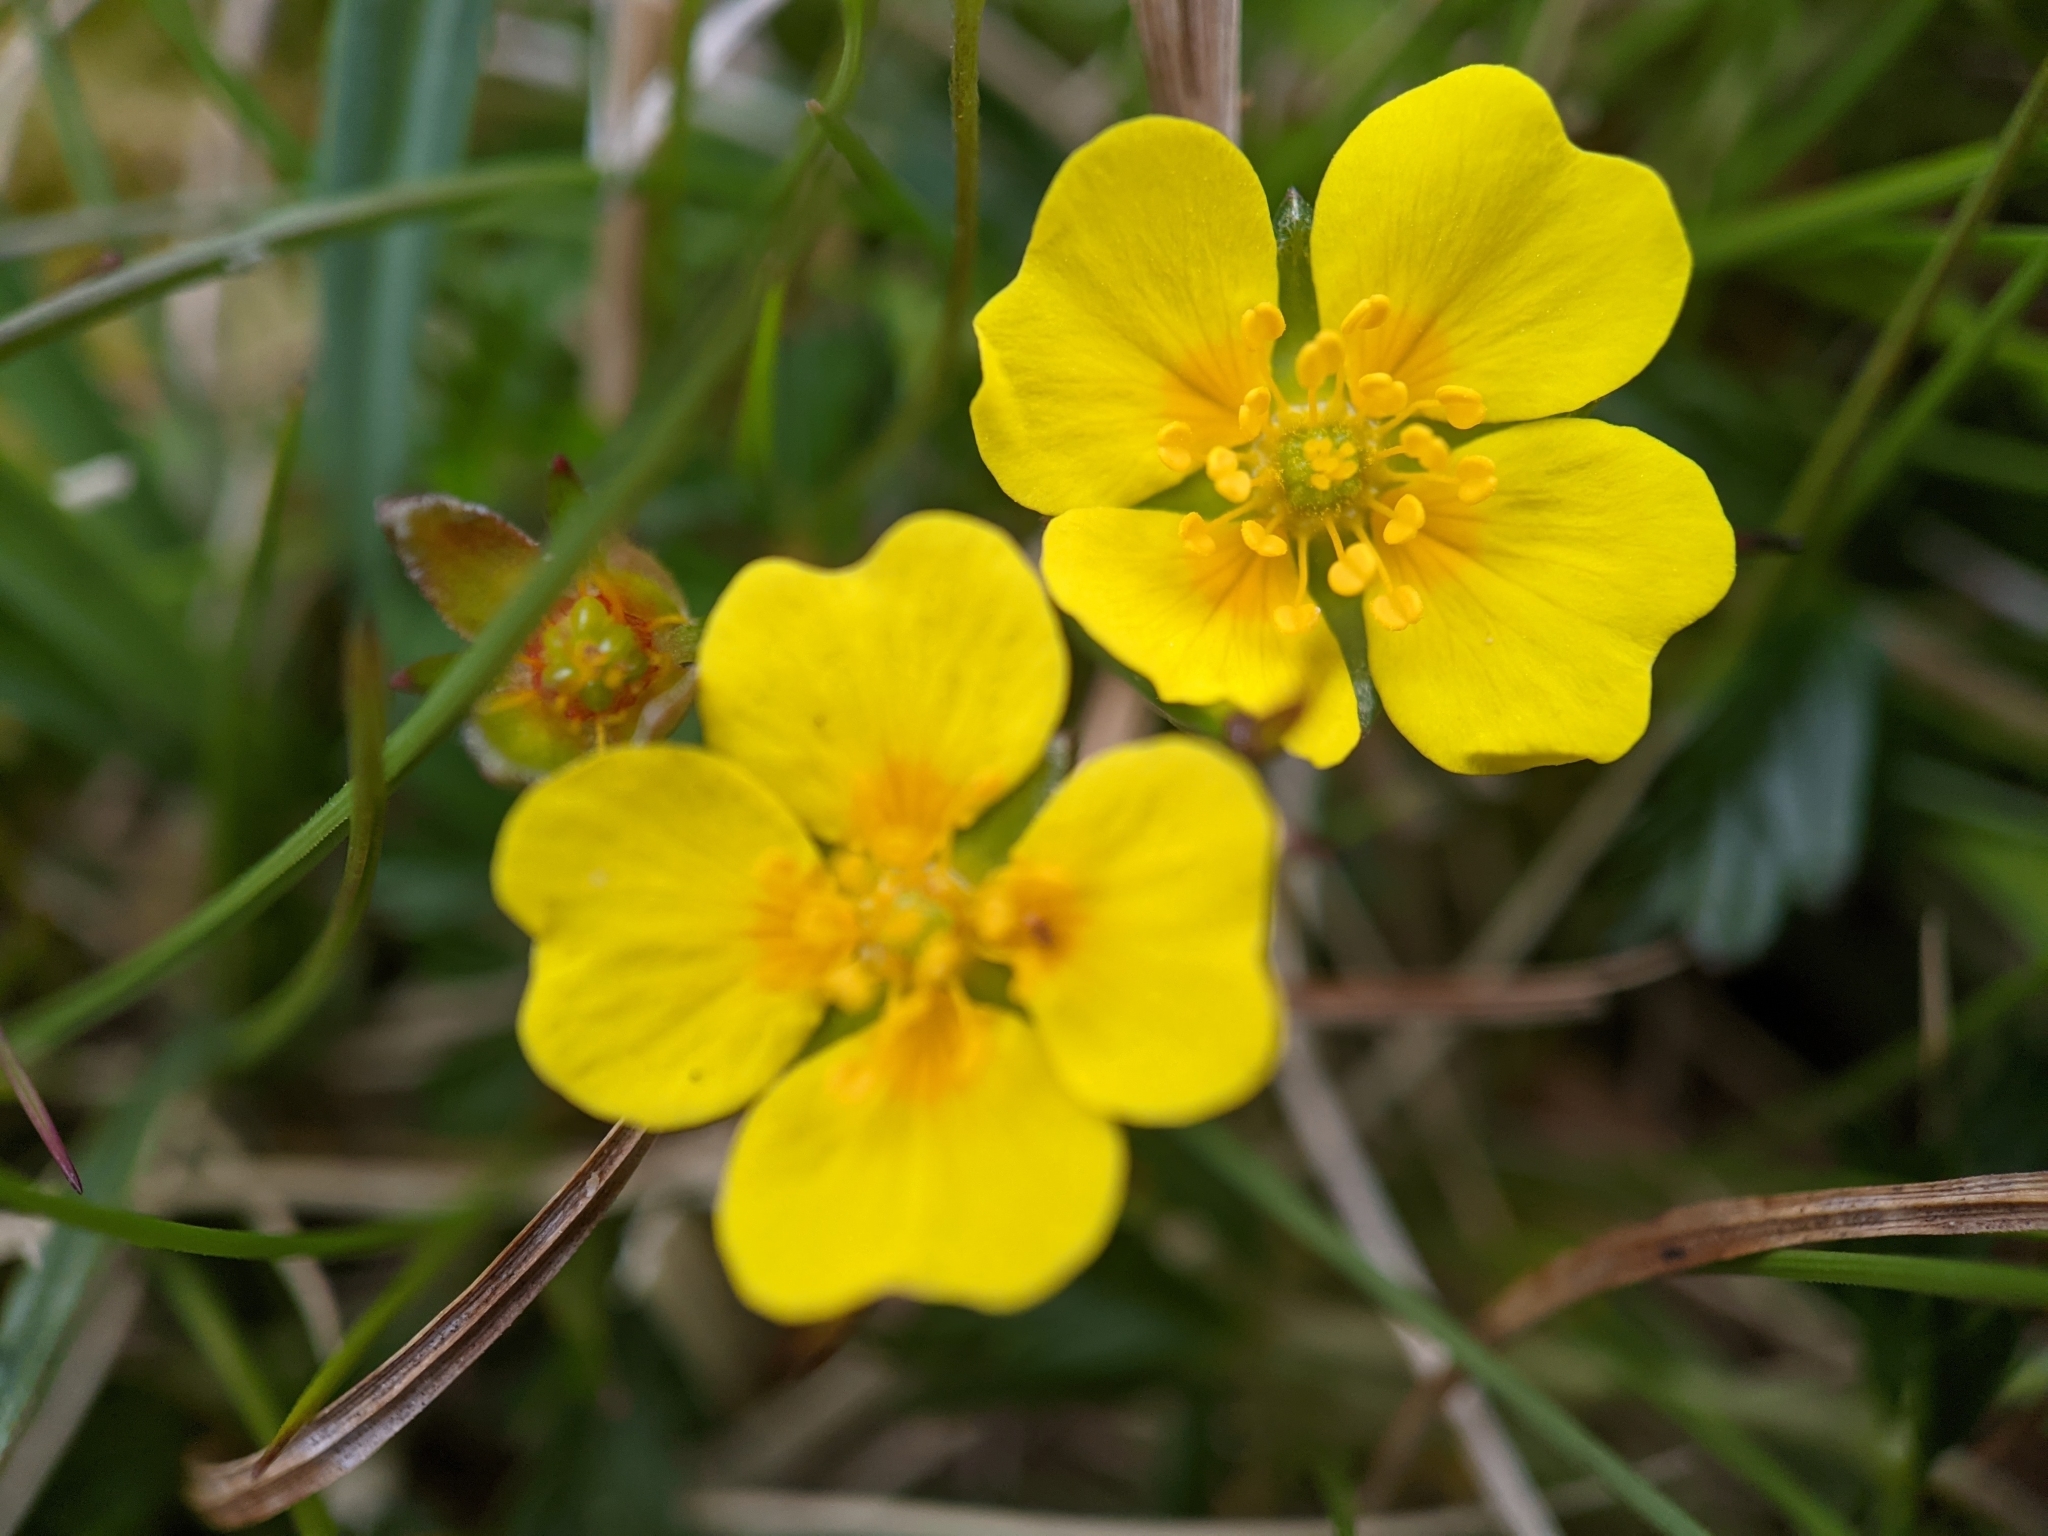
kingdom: Plantae
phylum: Tracheophyta
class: Magnoliopsida
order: Rosales
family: Rosaceae
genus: Potentilla
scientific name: Potentilla erecta
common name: Tormentil
